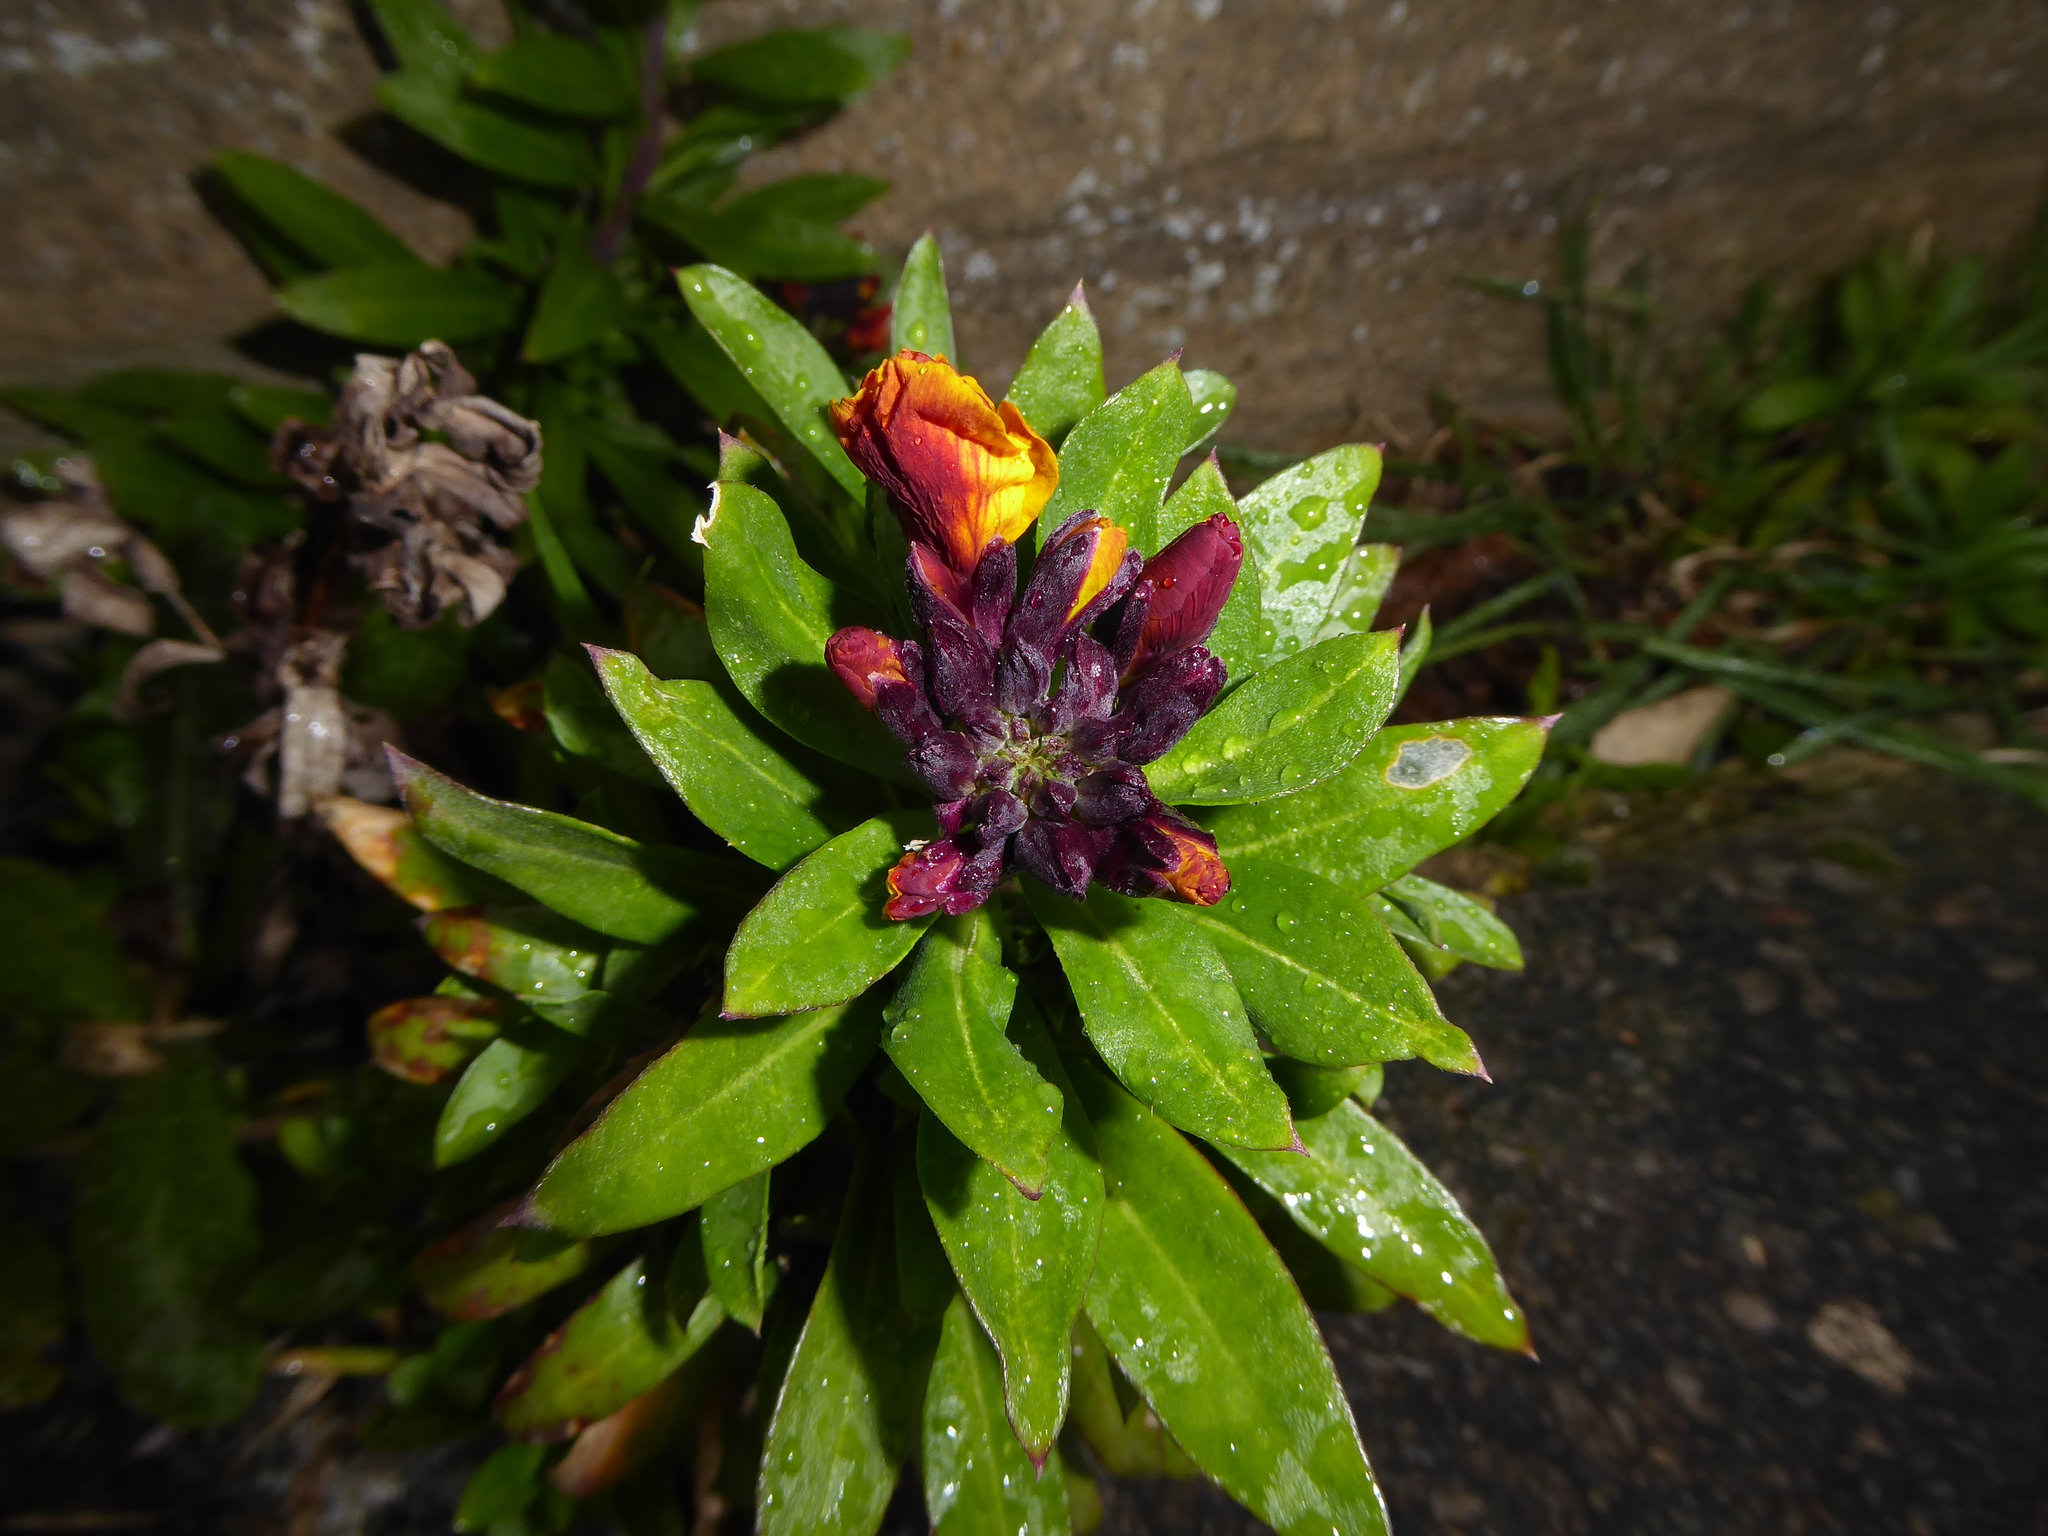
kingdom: Plantae
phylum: Tracheophyta
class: Magnoliopsida
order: Brassicales
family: Brassicaceae
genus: Erysimum
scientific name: Erysimum cheiri
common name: Wallflower
